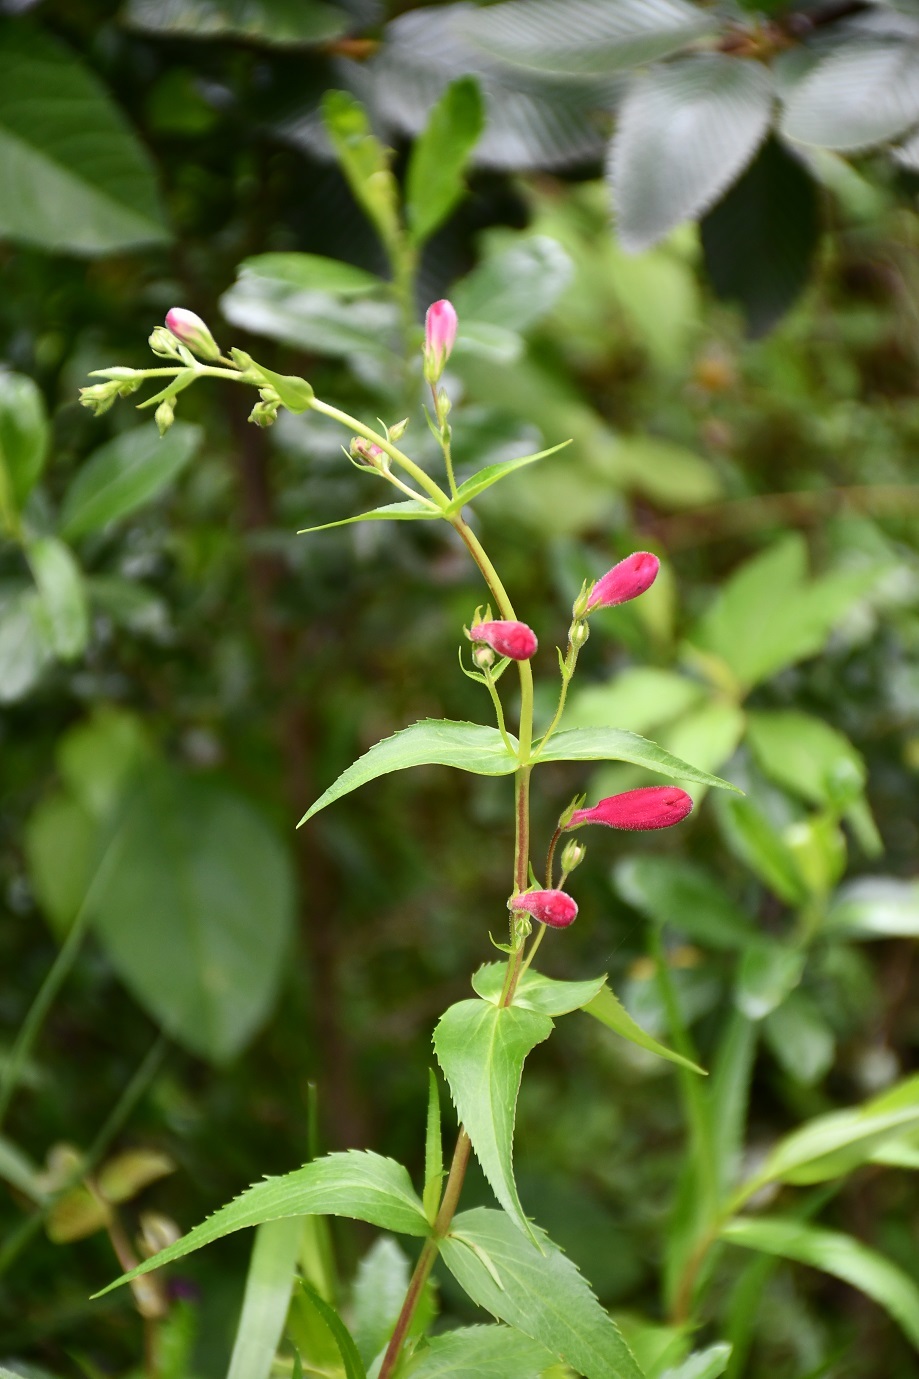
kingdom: Plantae
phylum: Tracheophyta
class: Magnoliopsida
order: Lamiales
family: Plantaginaceae
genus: Penstemon
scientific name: Penstemon roseus
